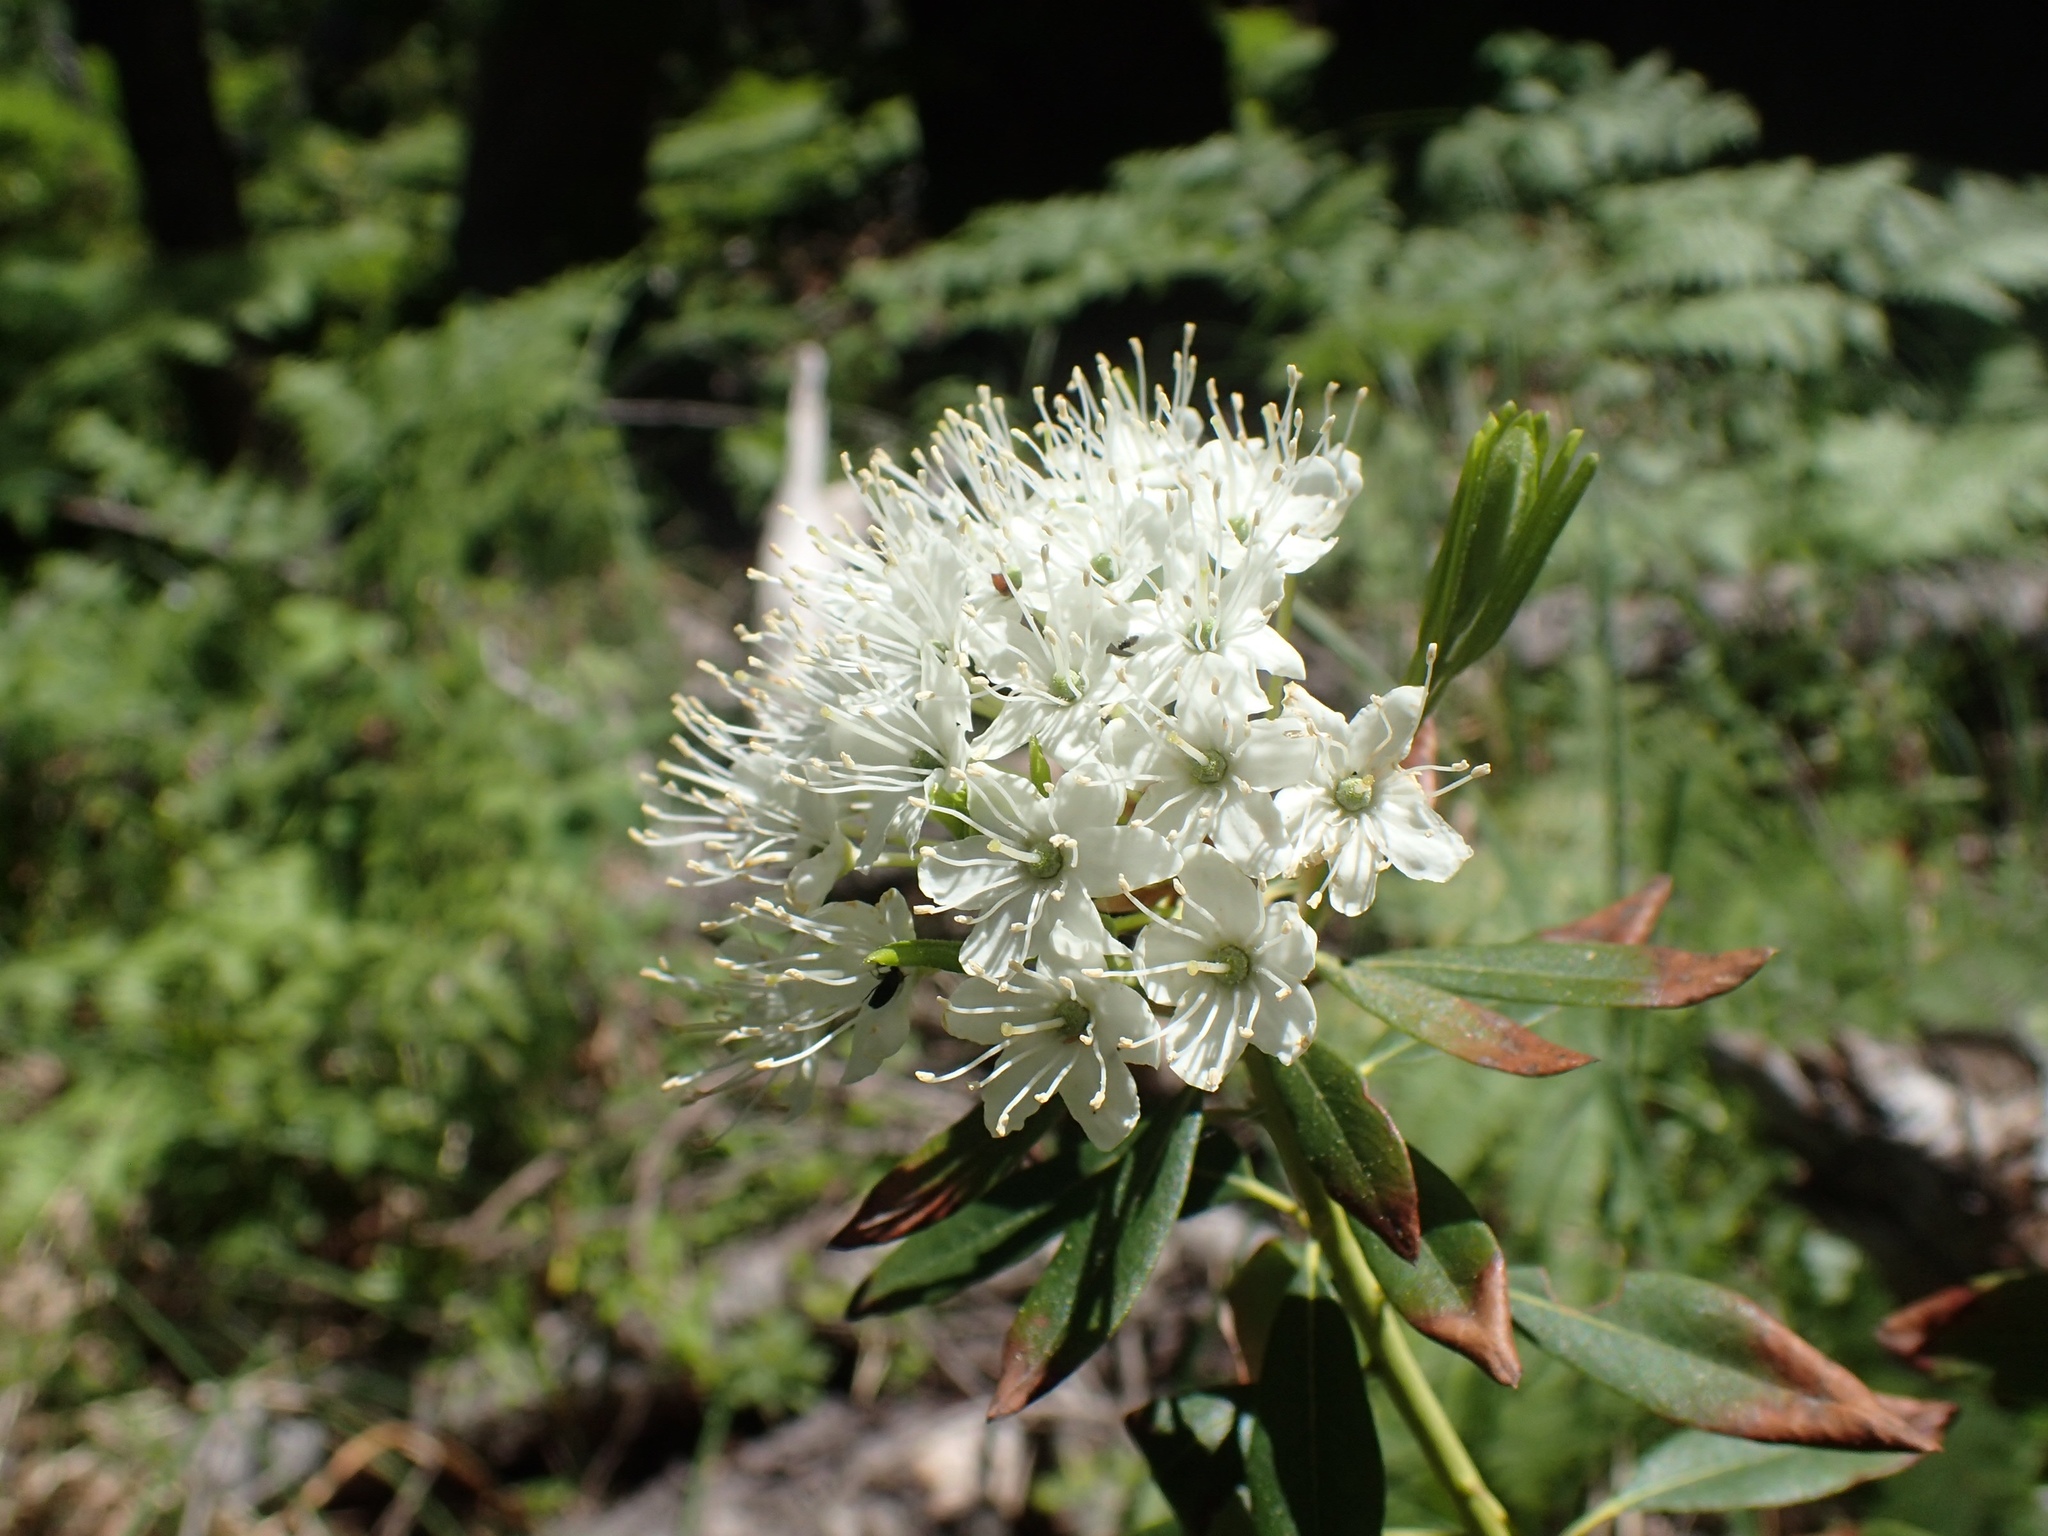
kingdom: Plantae
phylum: Tracheophyta
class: Magnoliopsida
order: Ericales
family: Ericaceae
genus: Rhododendron
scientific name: Rhododendron columbianum
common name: Western labrador tea
